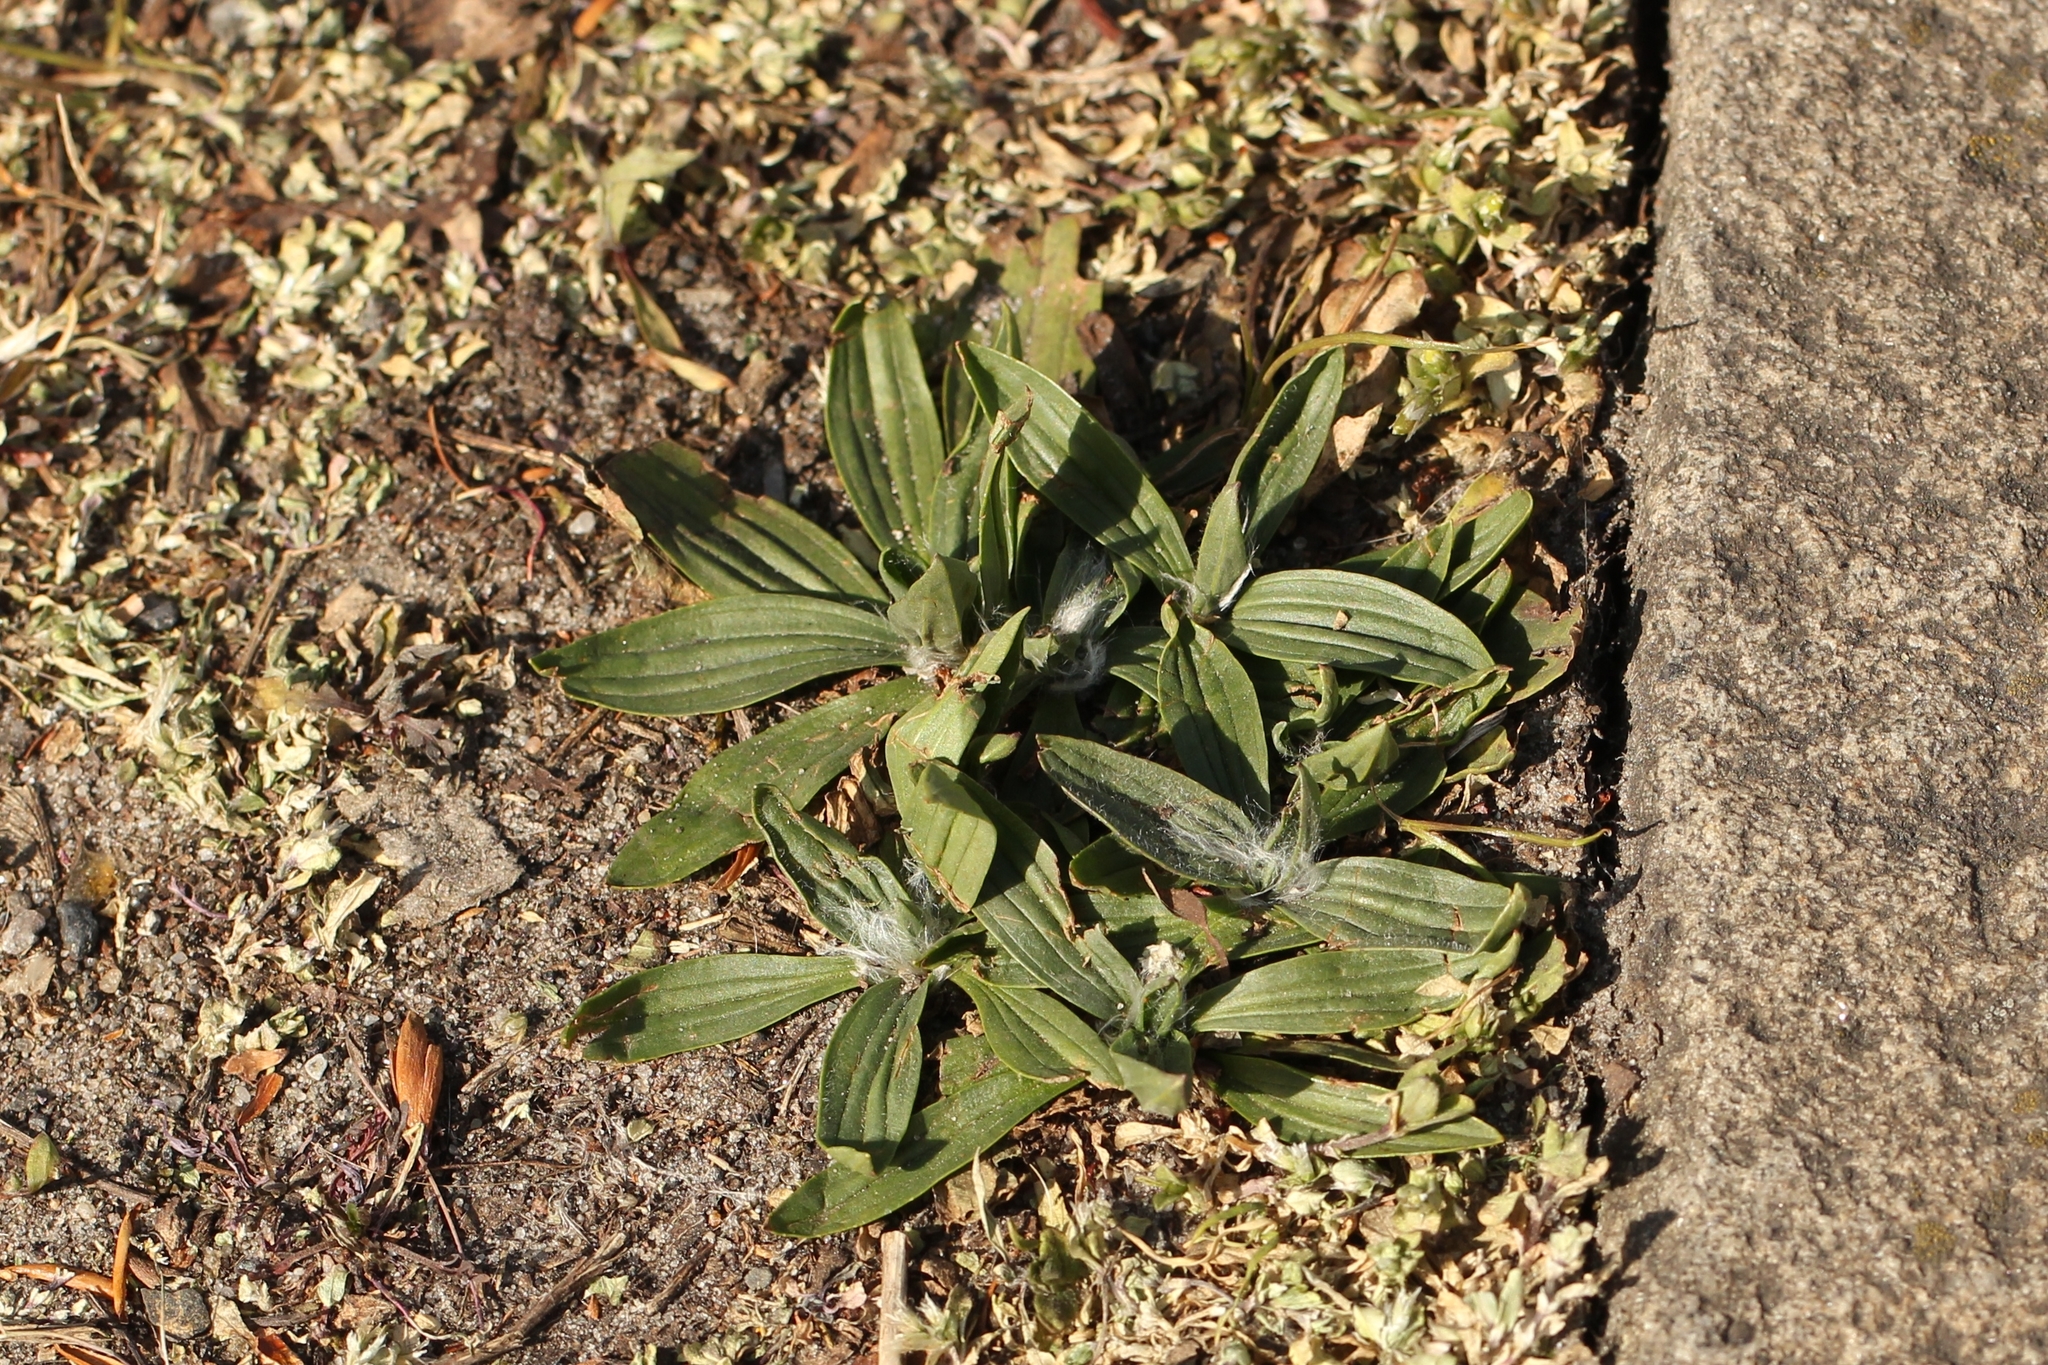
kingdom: Plantae
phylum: Tracheophyta
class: Magnoliopsida
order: Lamiales
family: Plantaginaceae
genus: Plantago
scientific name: Plantago lanceolata
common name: Ribwort plantain
